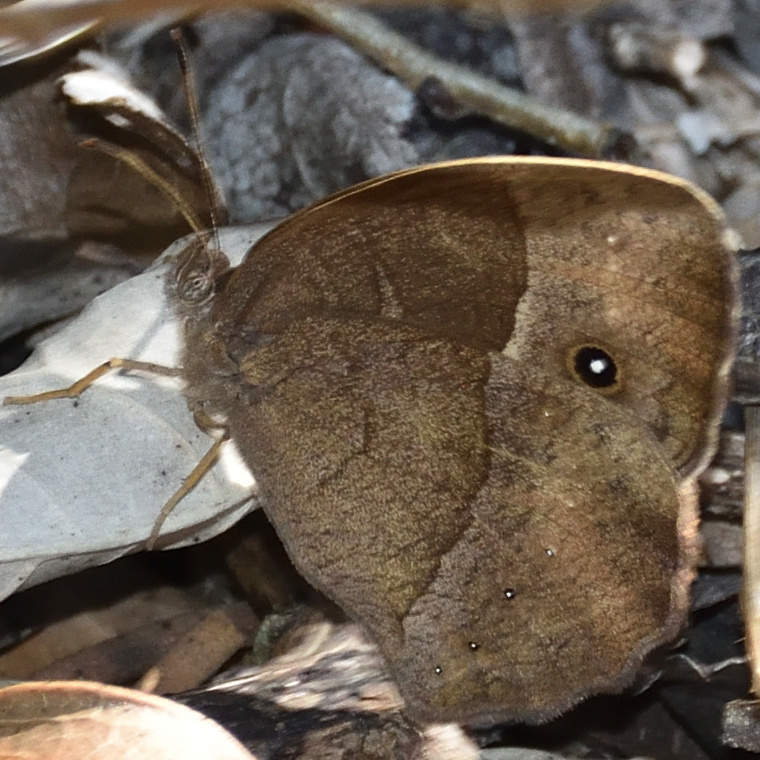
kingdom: Animalia
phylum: Arthropoda
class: Insecta
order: Lepidoptera
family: Nymphalidae
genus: Mycalesis
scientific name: Mycalesis anynana
